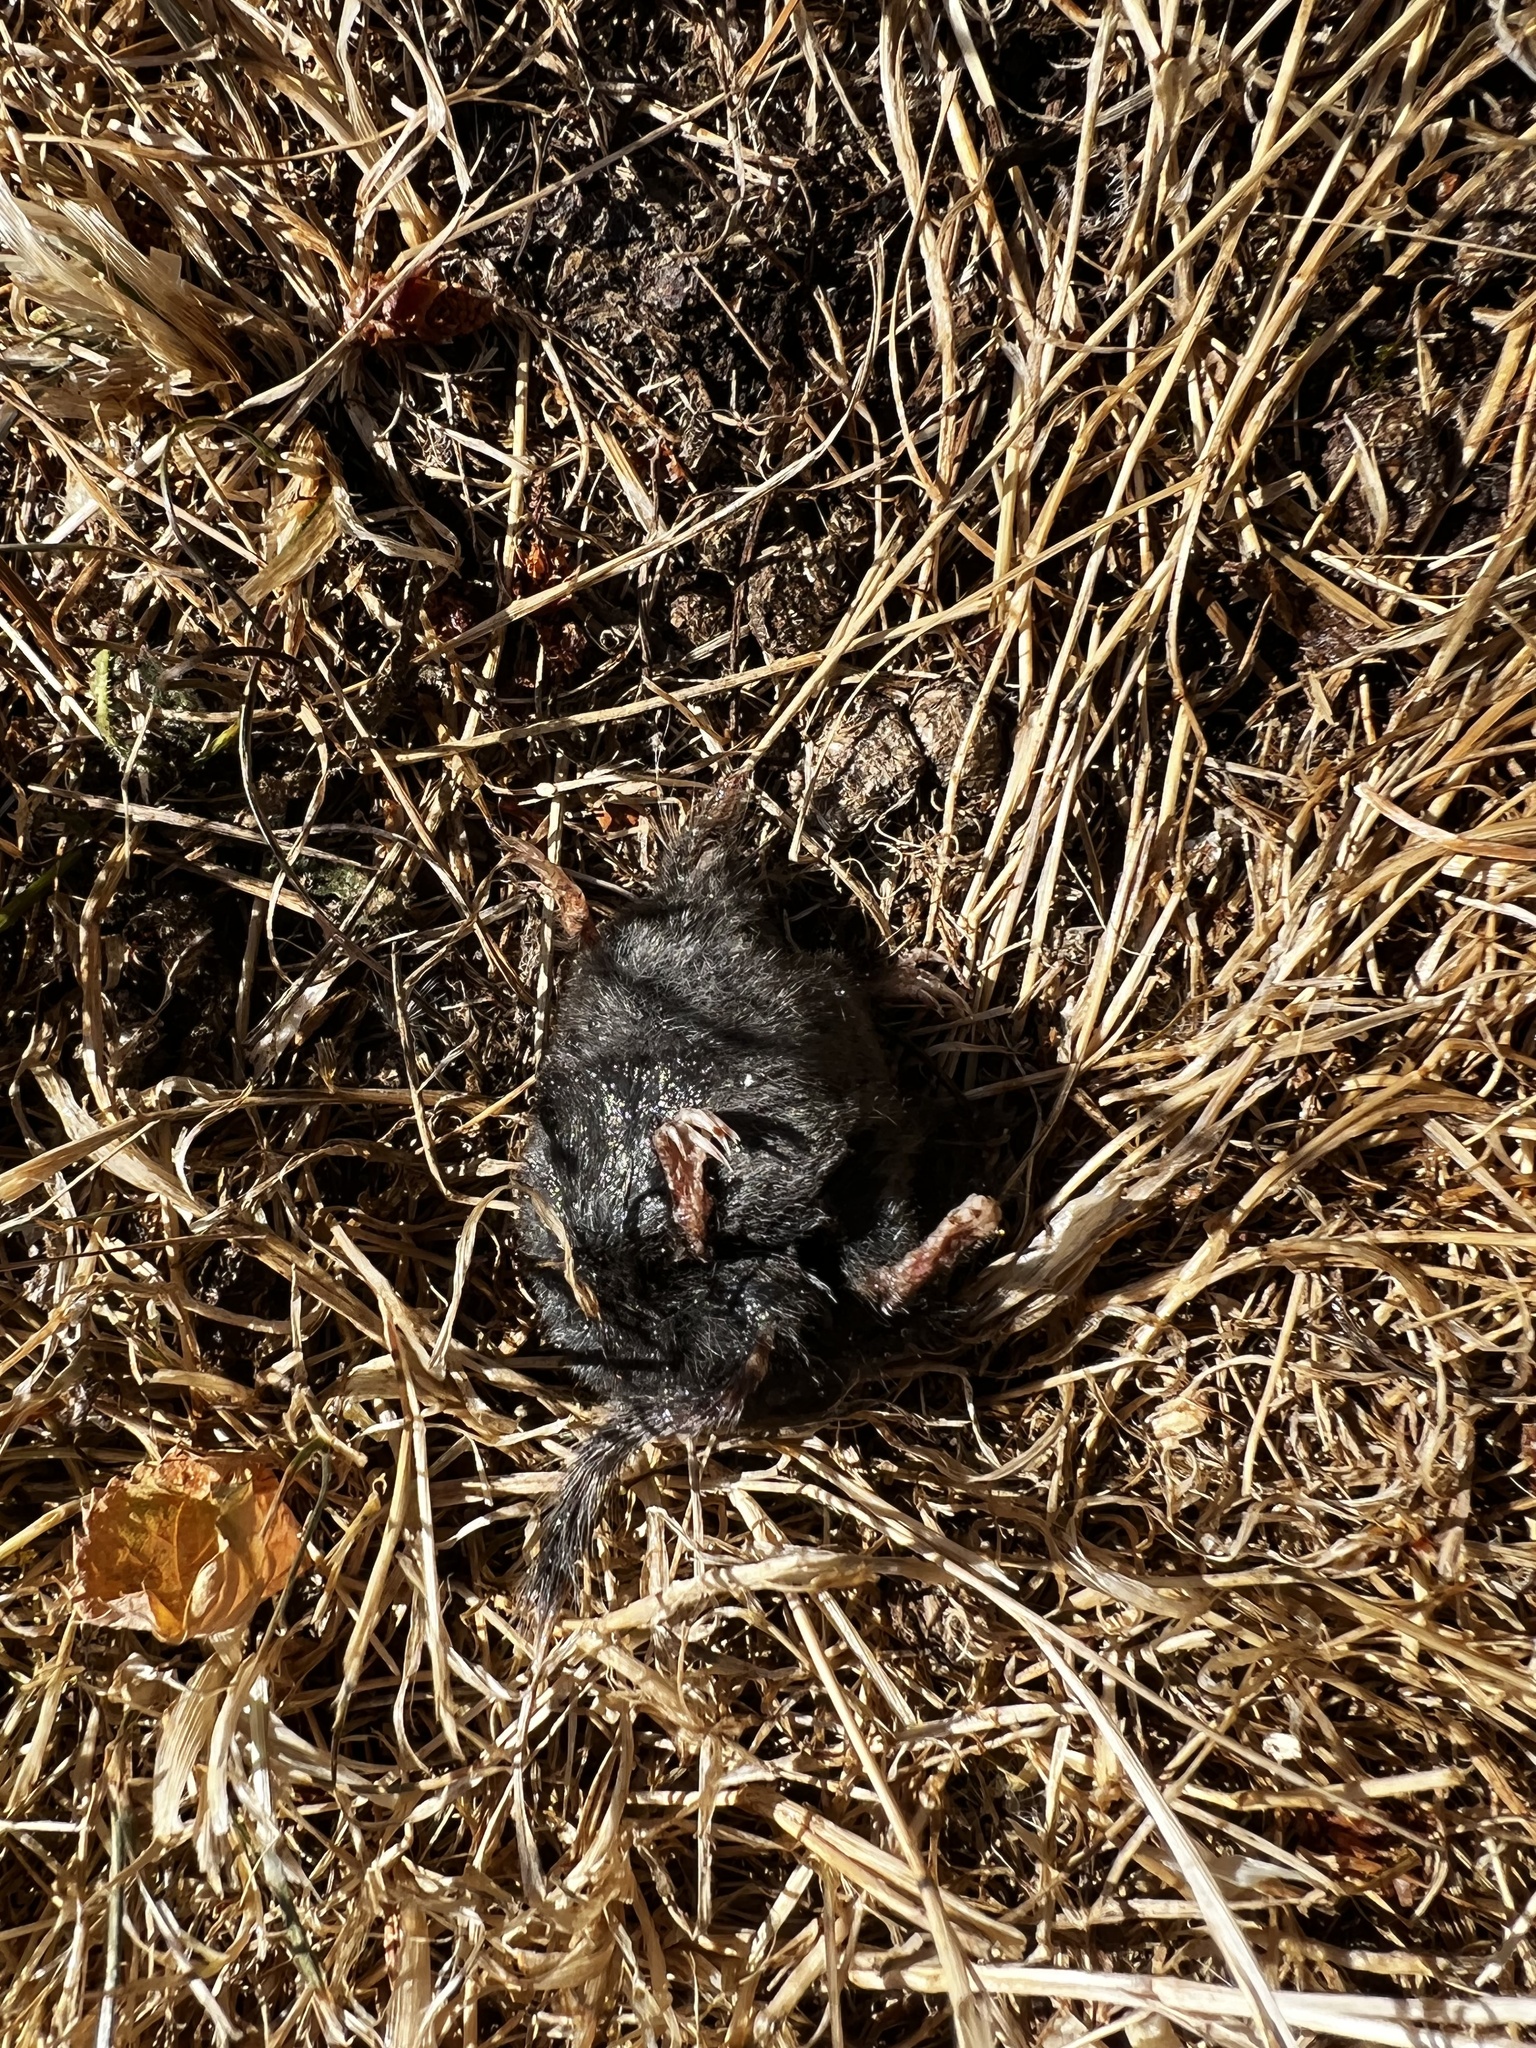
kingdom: Animalia
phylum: Chordata
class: Mammalia
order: Soricomorpha
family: Talpidae
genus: Neurotrichus
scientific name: Neurotrichus gibbsii
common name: American shrew mole
